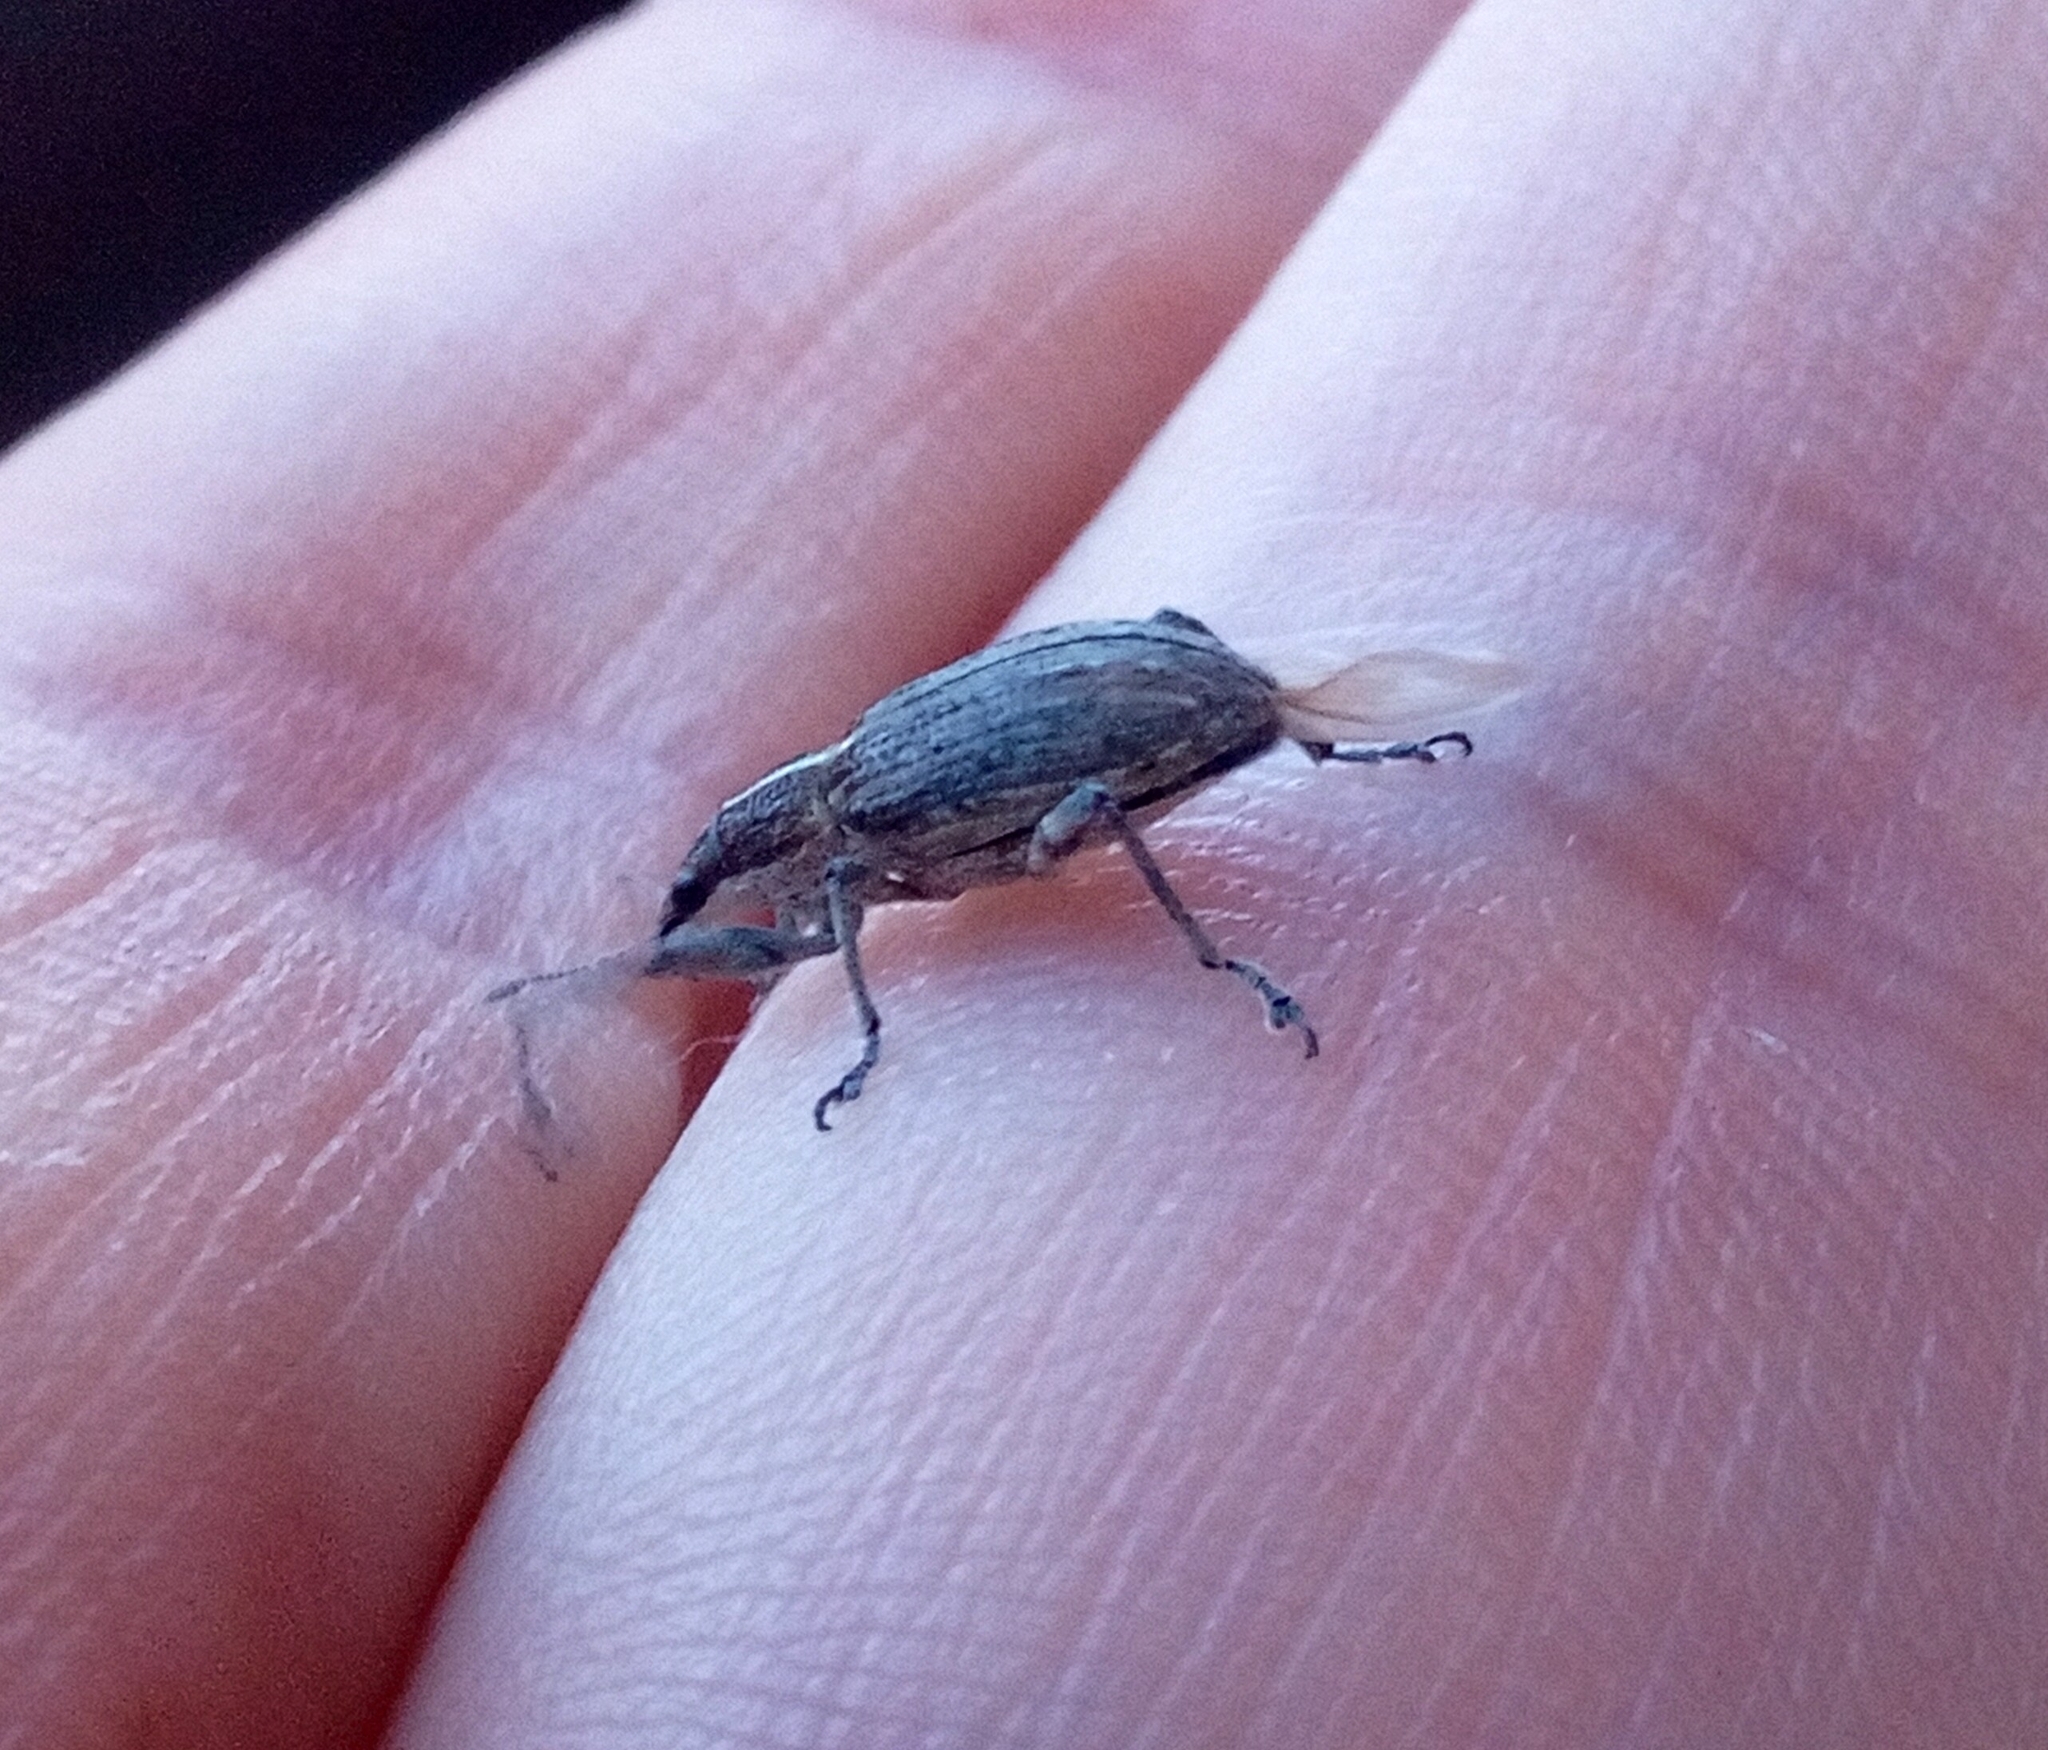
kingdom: Animalia
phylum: Arthropoda
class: Insecta
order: Coleoptera
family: Curculionidae
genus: Charagmus
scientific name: Charagmus gressorius
